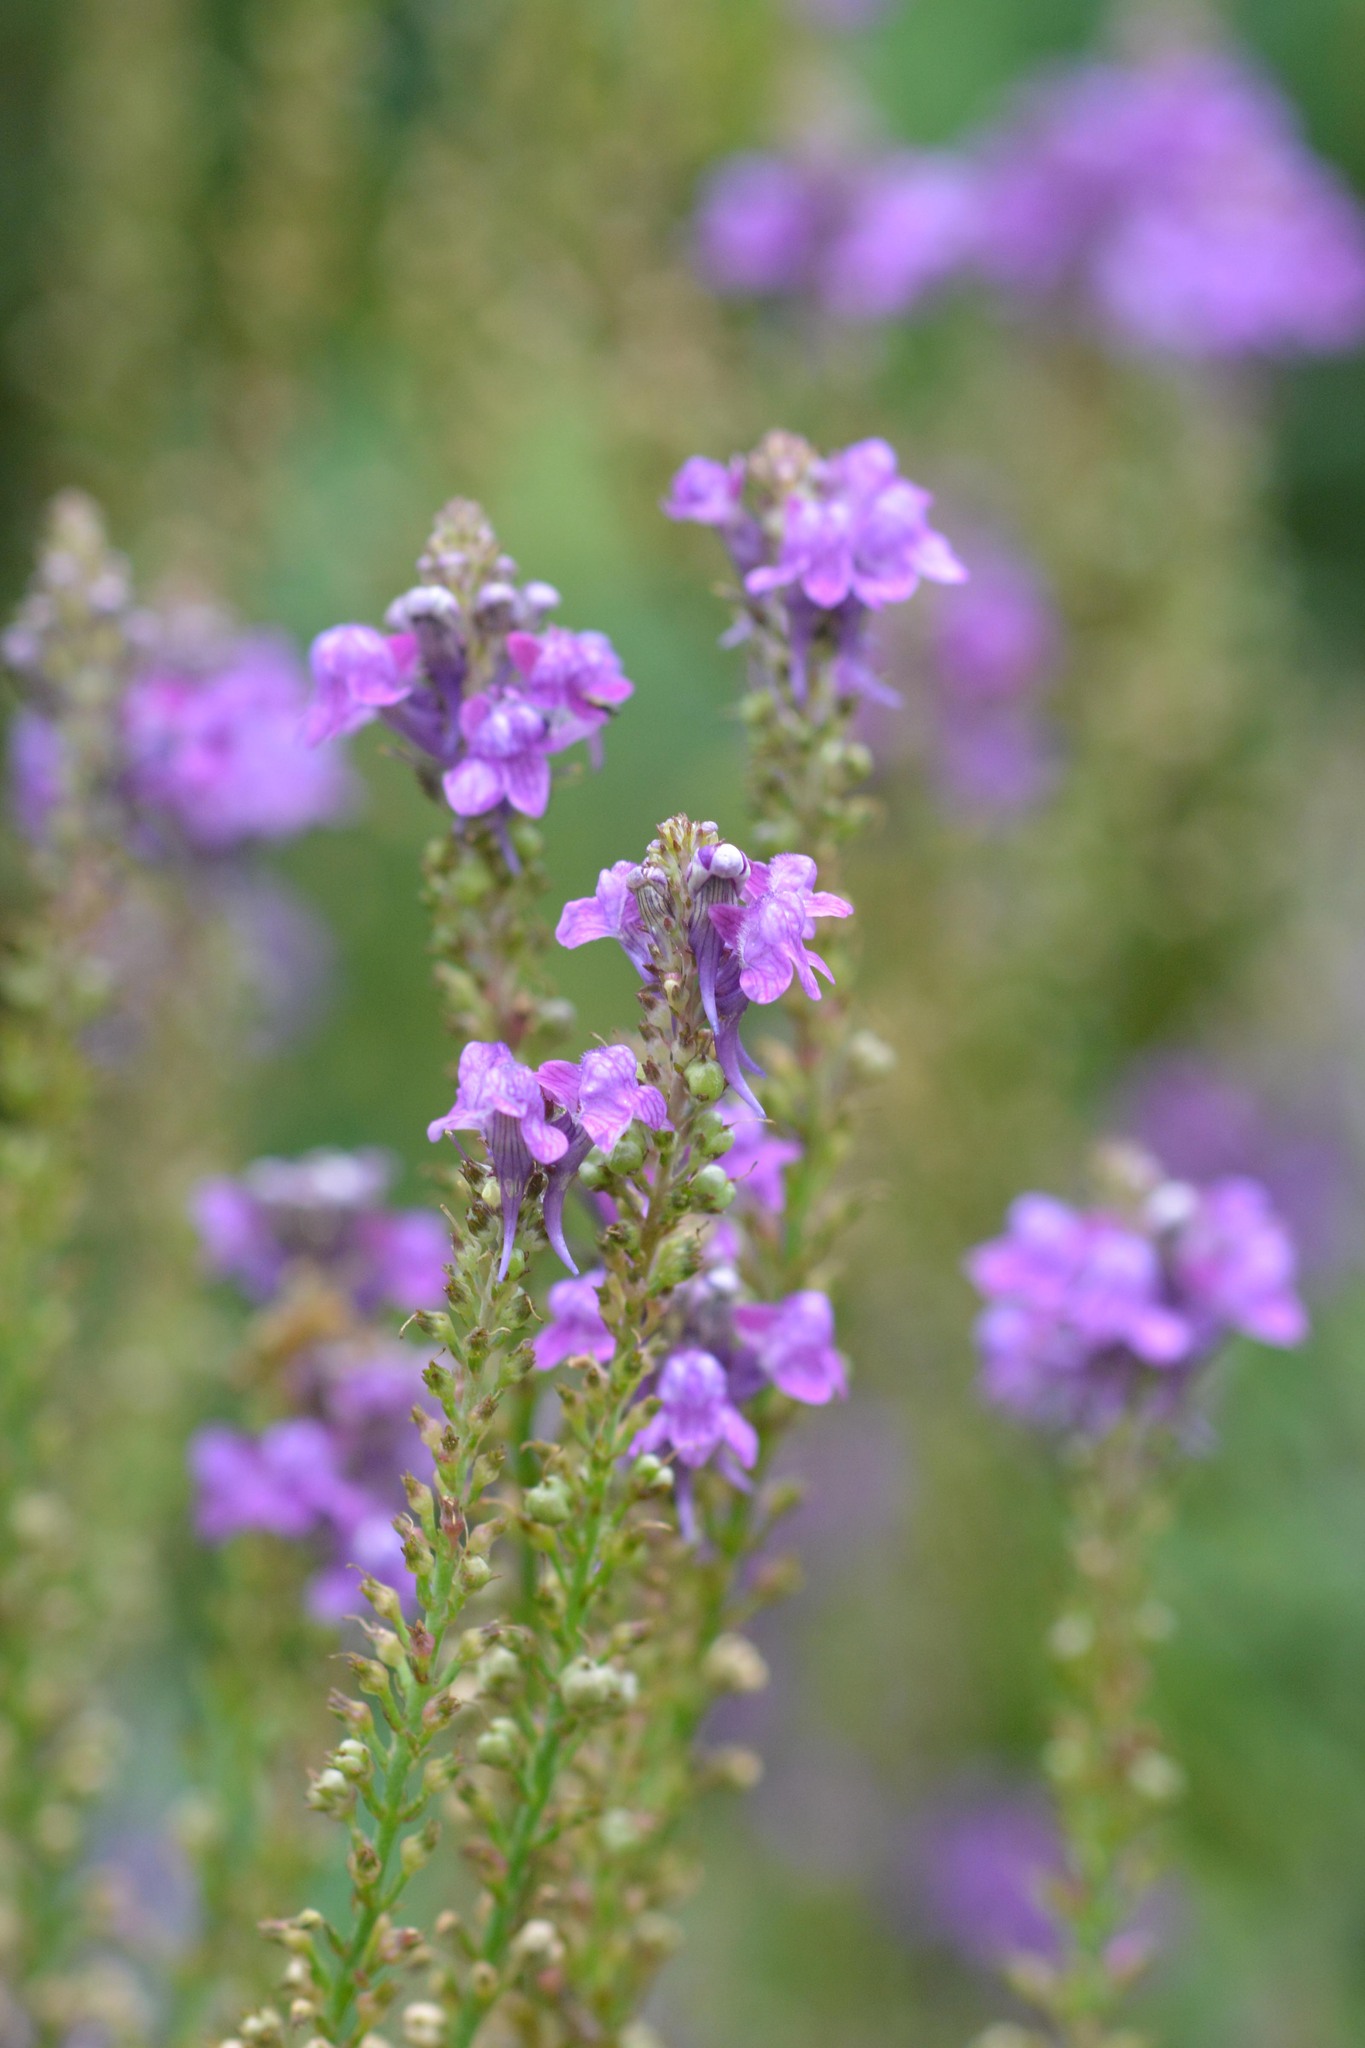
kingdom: Plantae
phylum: Tracheophyta
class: Magnoliopsida
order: Lamiales
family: Plantaginaceae
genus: Linaria
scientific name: Linaria purpurea
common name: Purple toadflax
